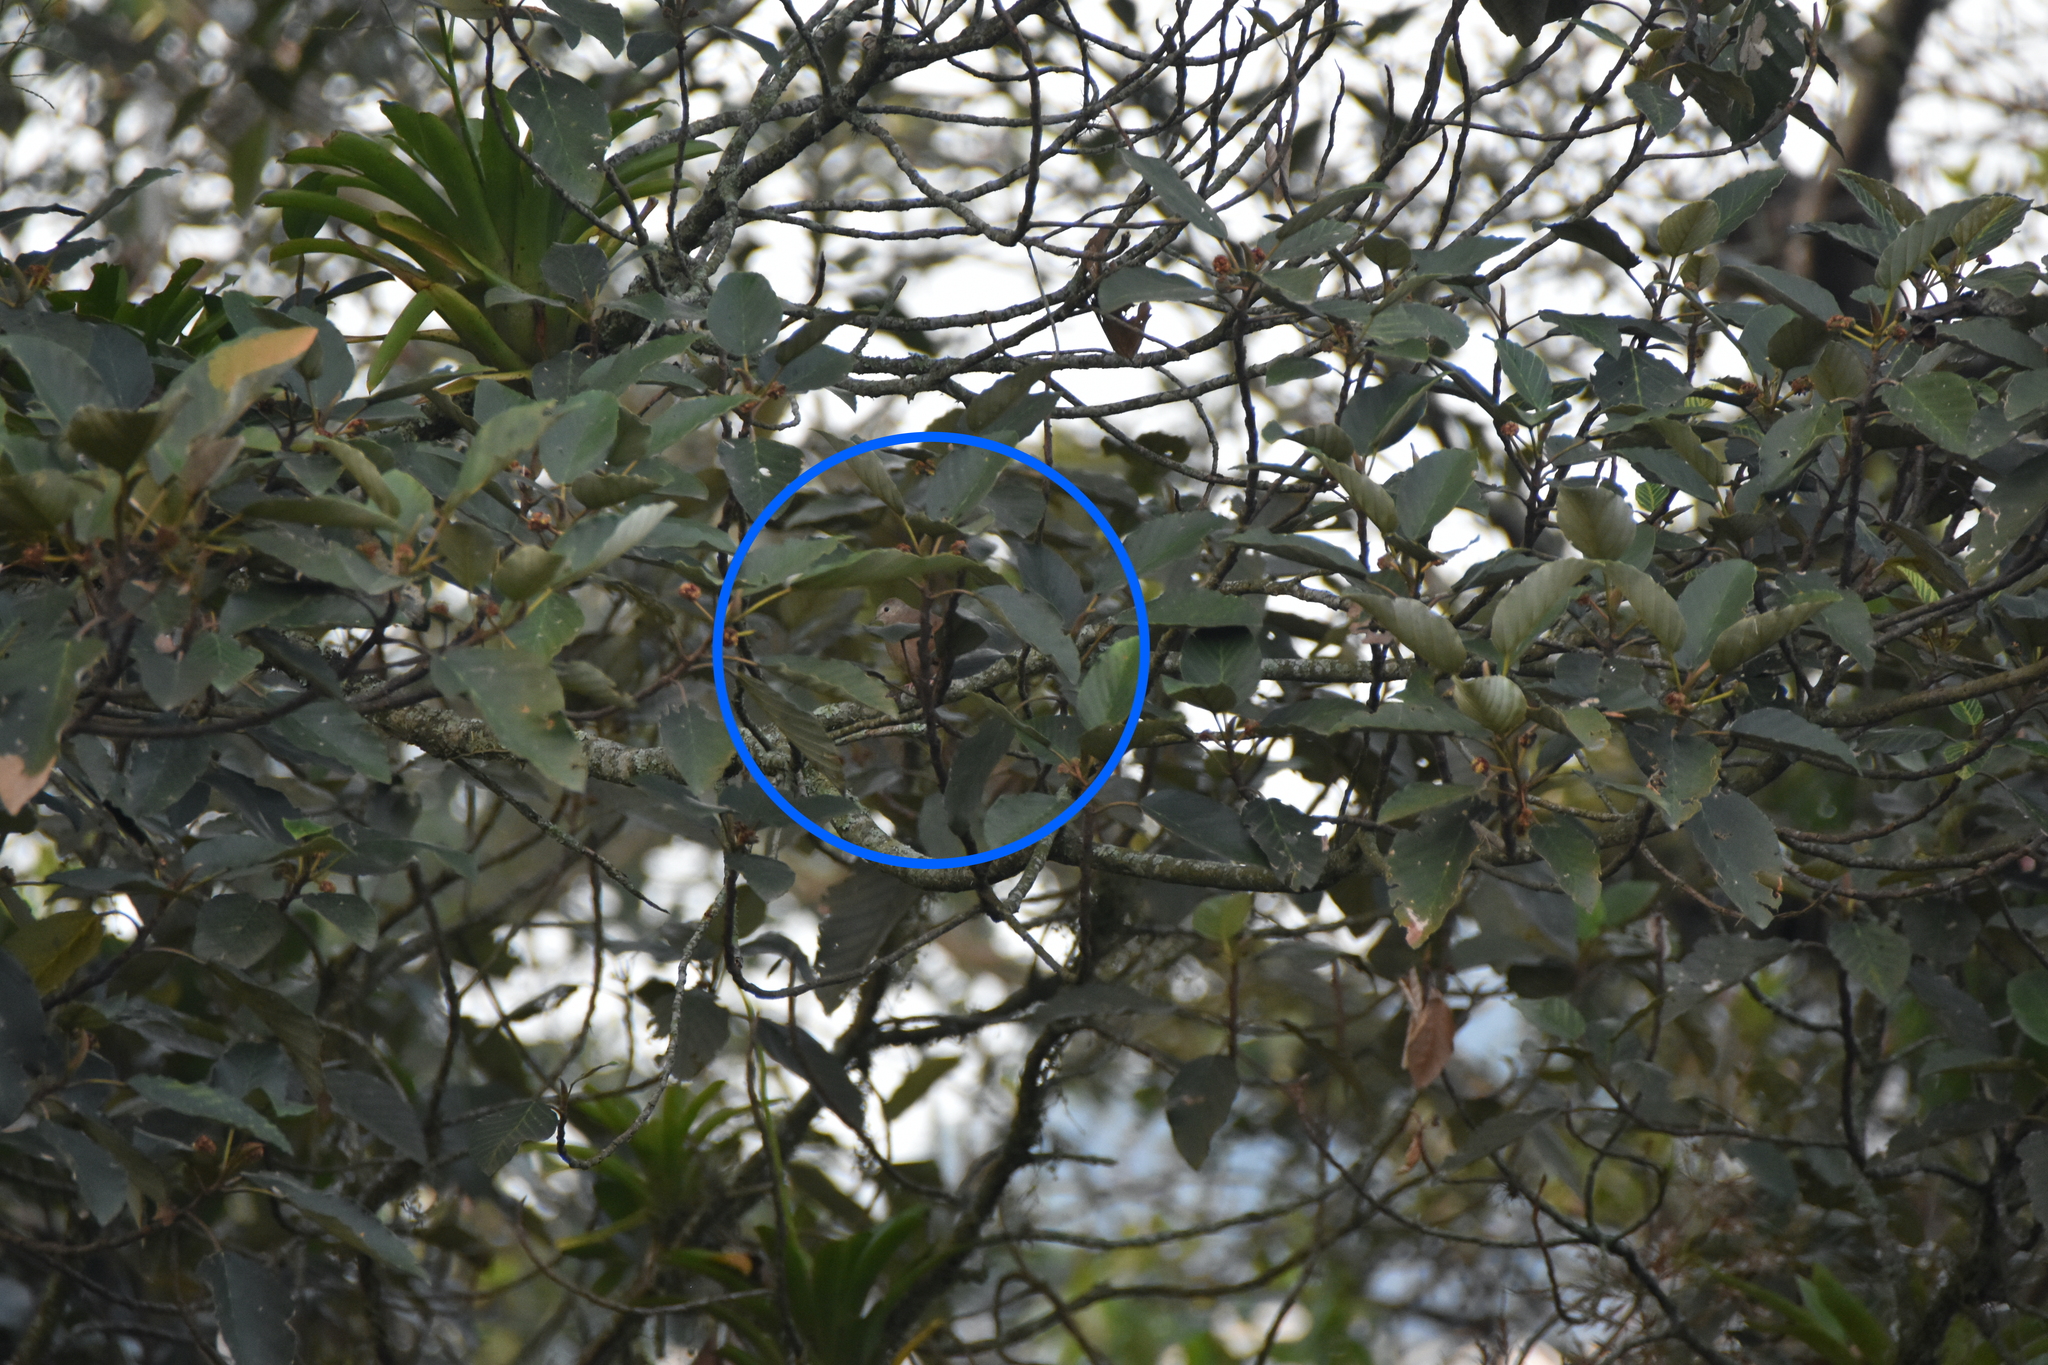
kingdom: Animalia
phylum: Chordata
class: Aves
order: Columbiformes
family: Columbidae
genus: Columbina
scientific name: Columbina talpacoti
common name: Ruddy ground dove
